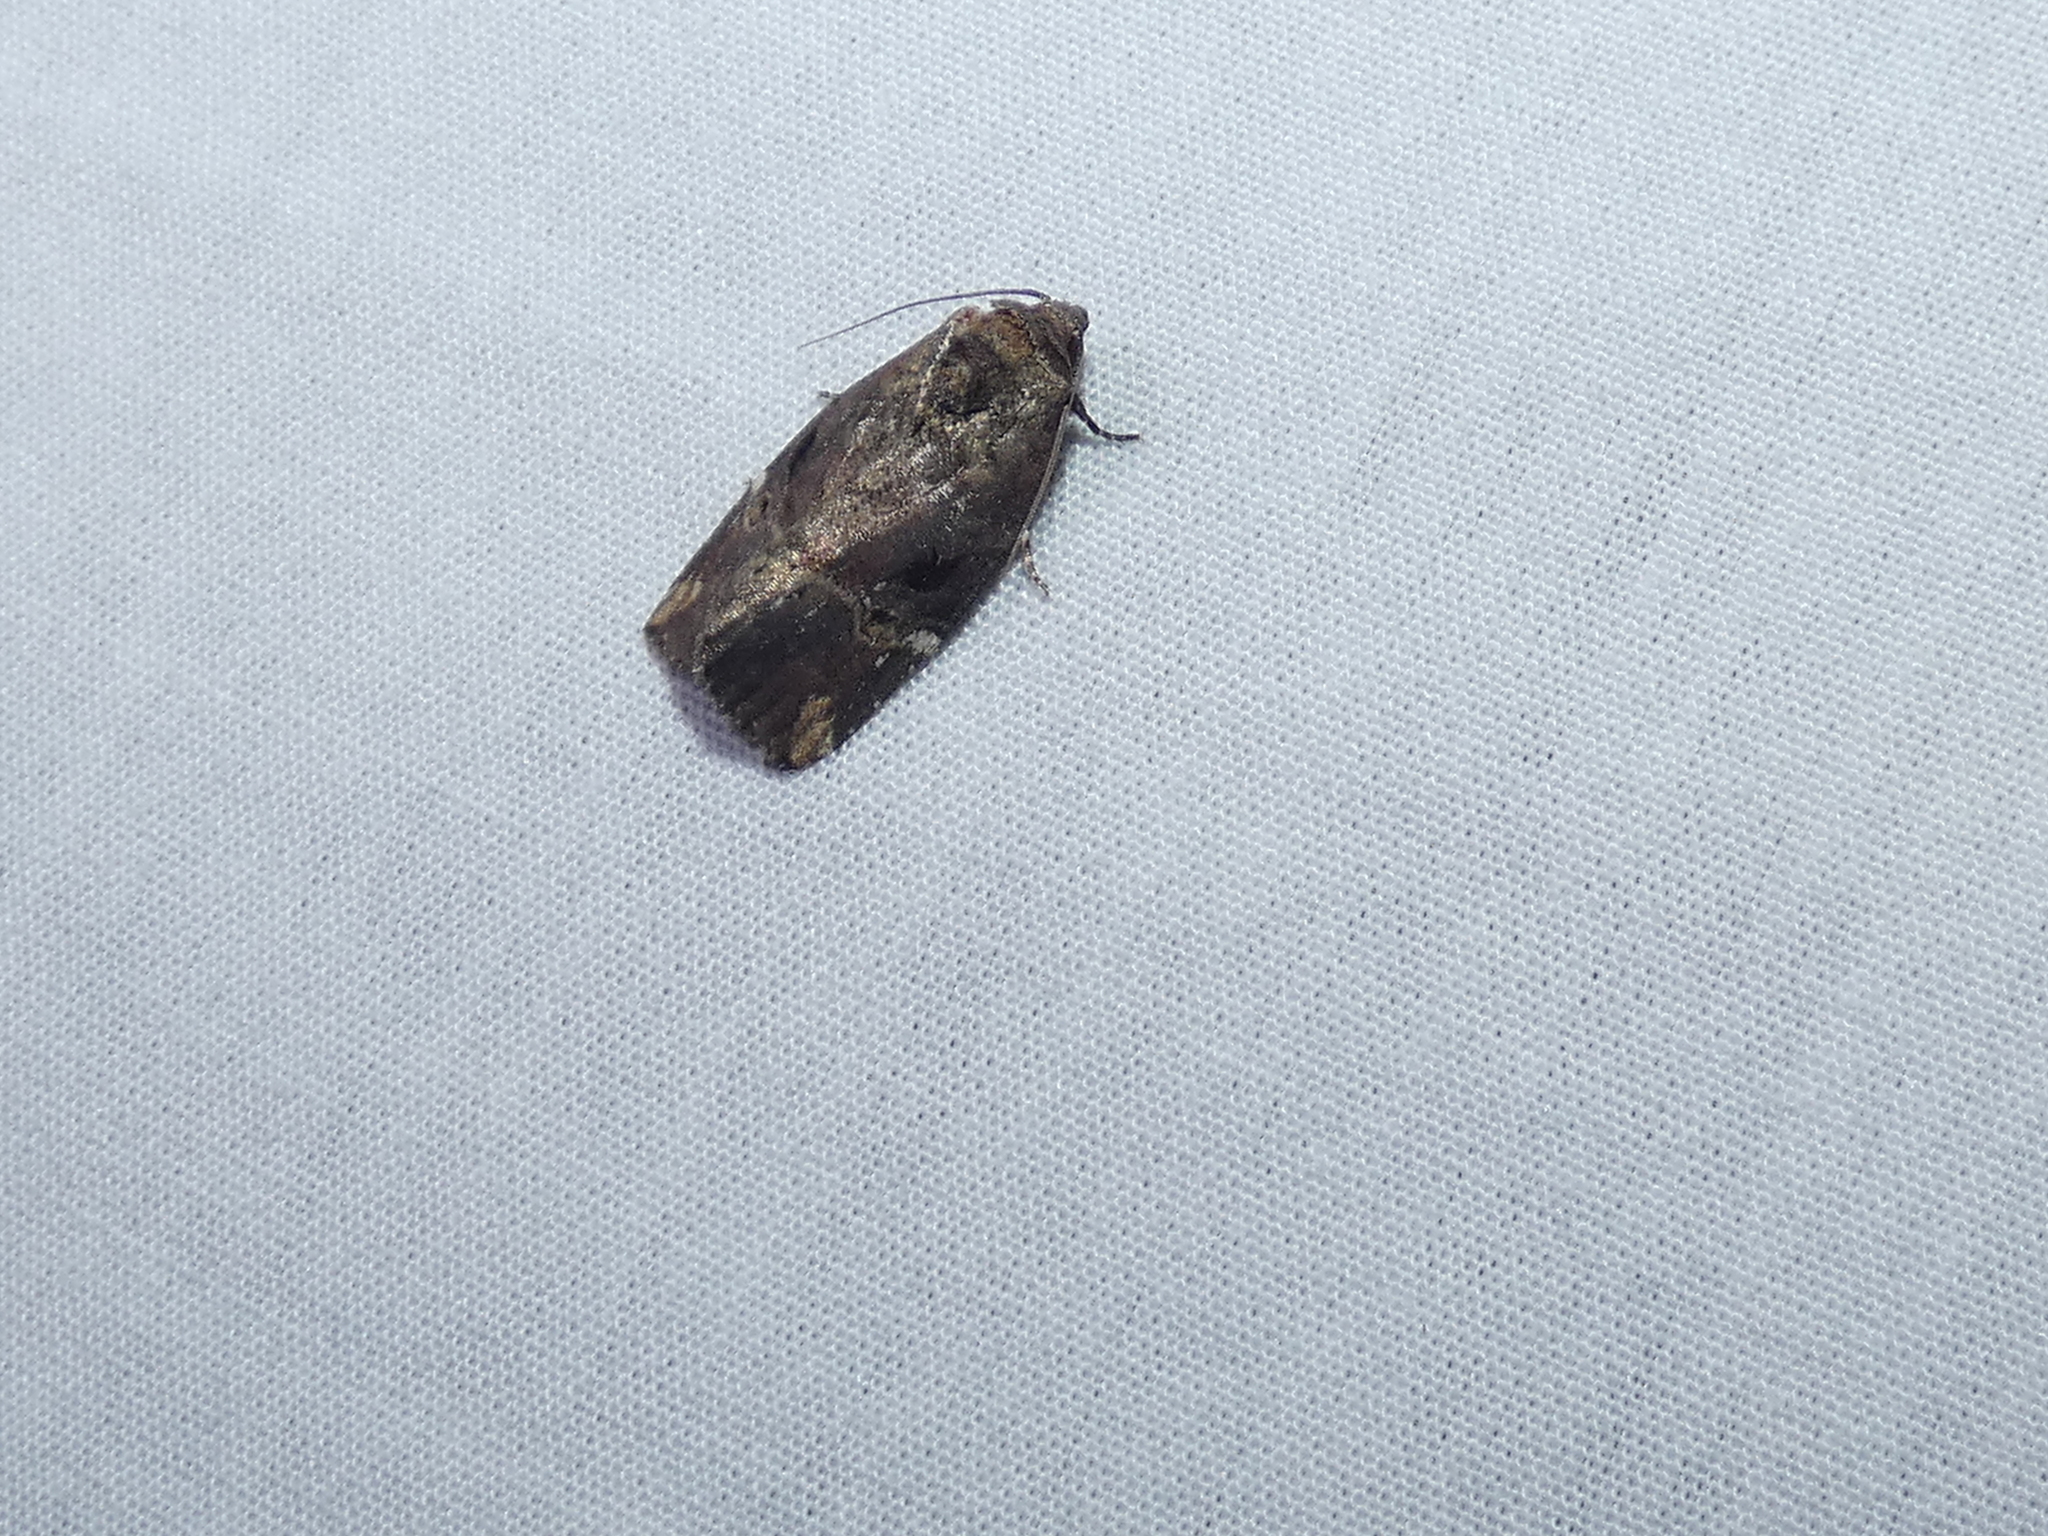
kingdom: Animalia
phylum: Arthropoda
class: Insecta
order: Lepidoptera
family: Noctuidae
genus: Elaphria
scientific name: Elaphria versicolor
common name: Fir harlequin
